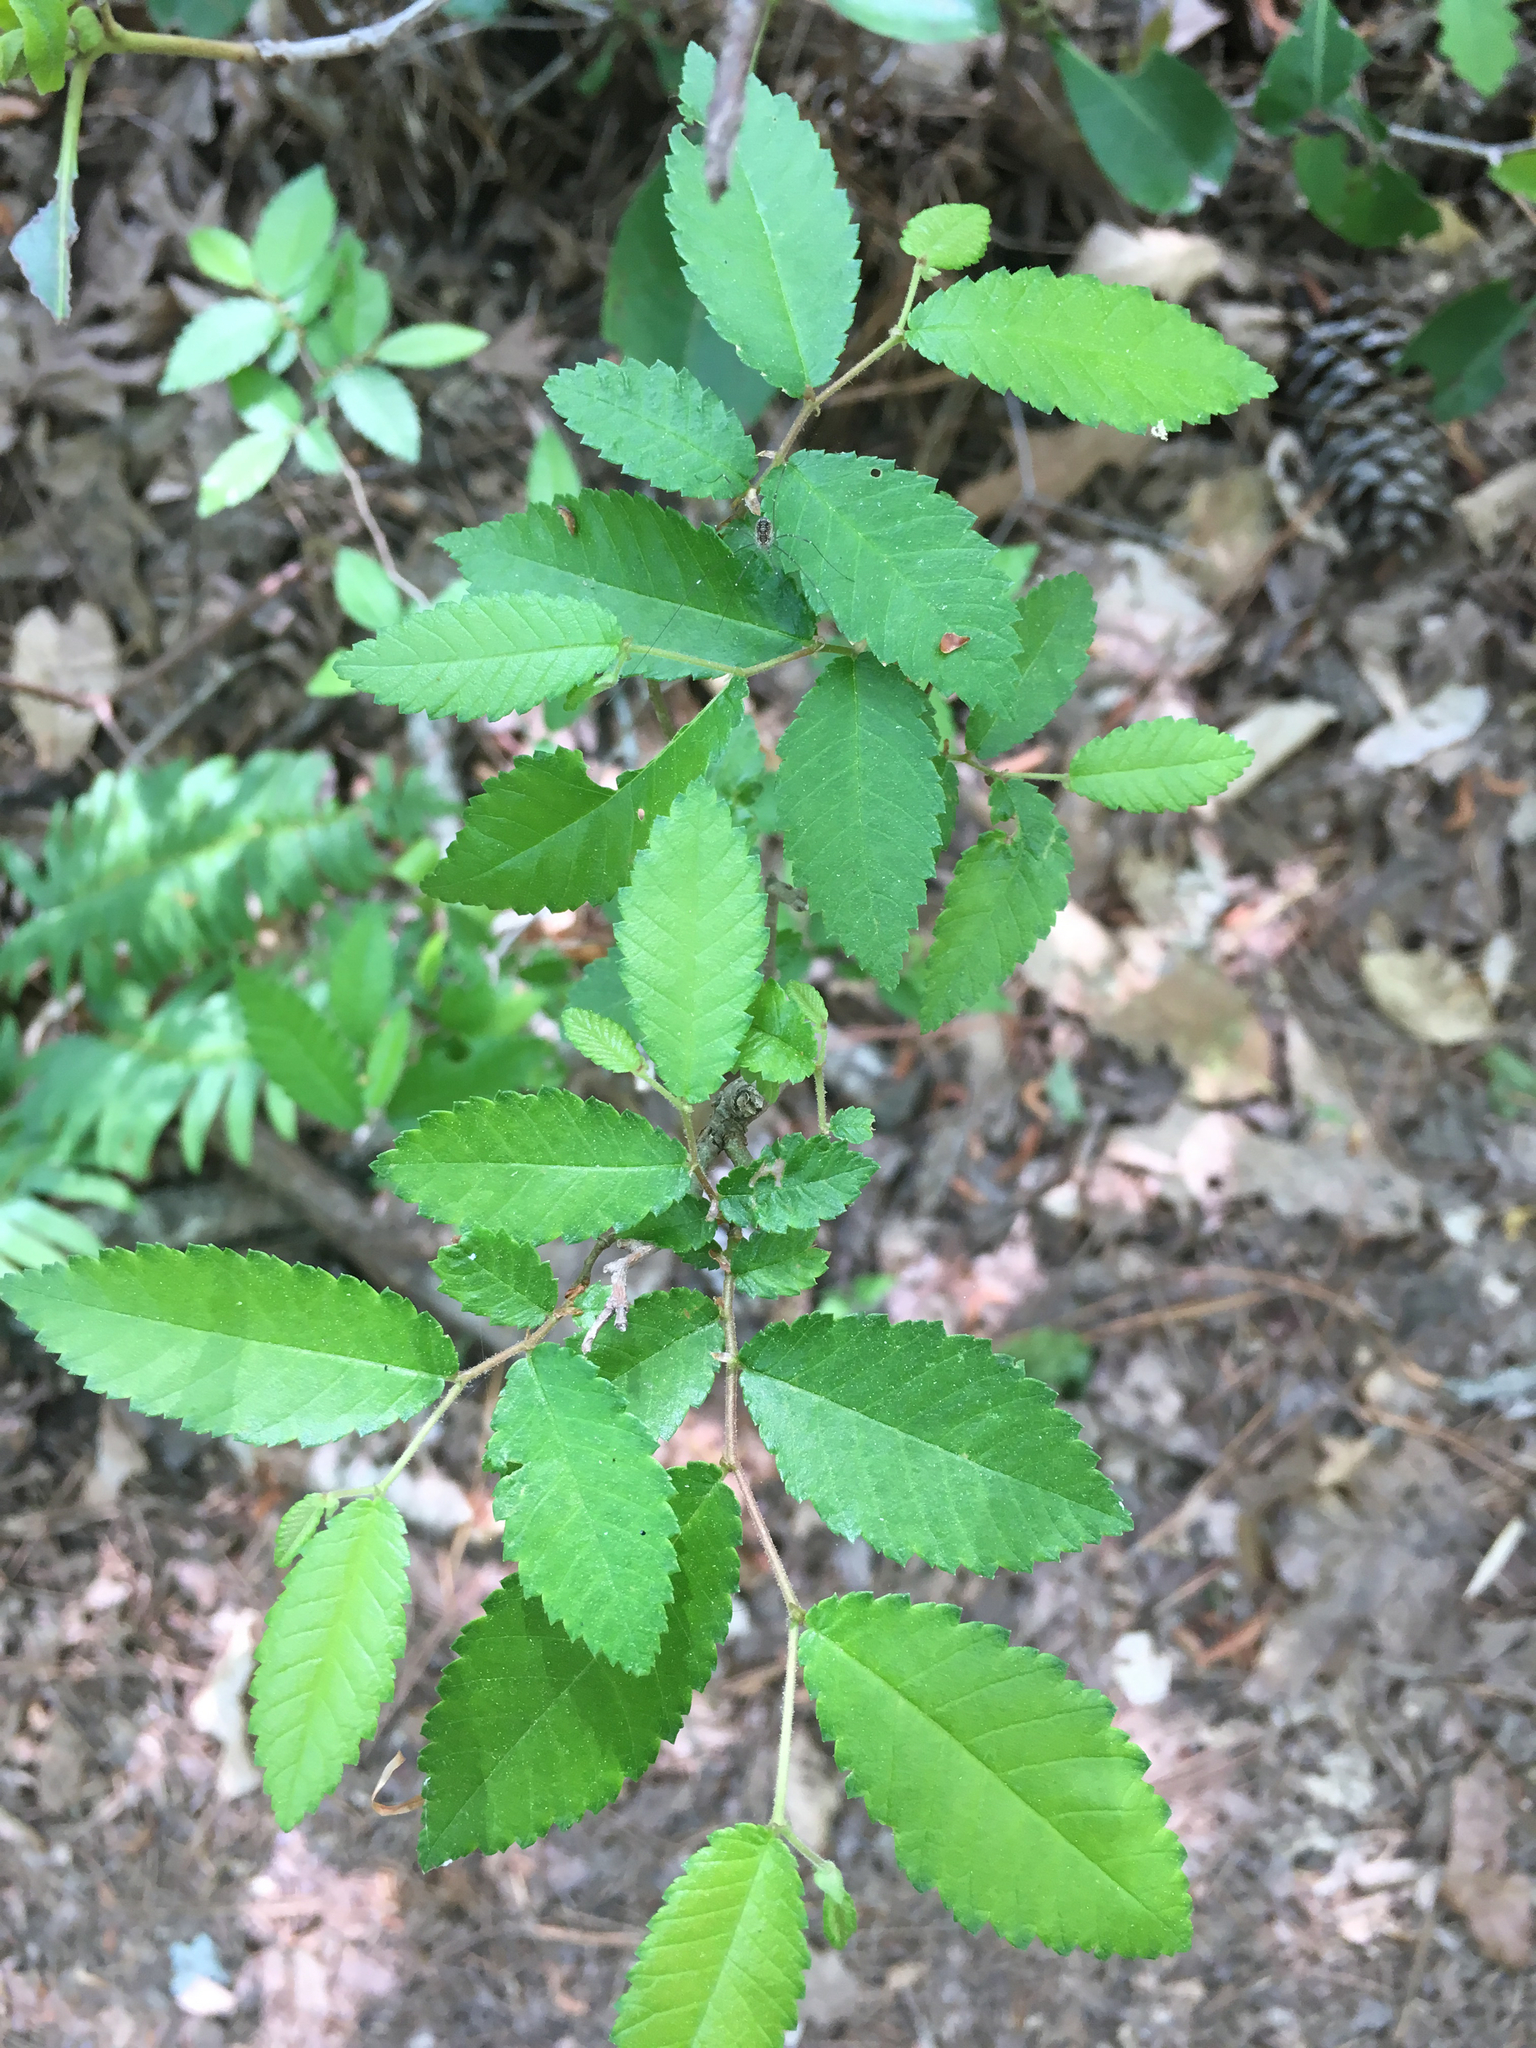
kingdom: Plantae
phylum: Tracheophyta
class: Magnoliopsida
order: Rosales
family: Ulmaceae
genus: Ulmus
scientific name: Ulmus alata
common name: Winged elm
